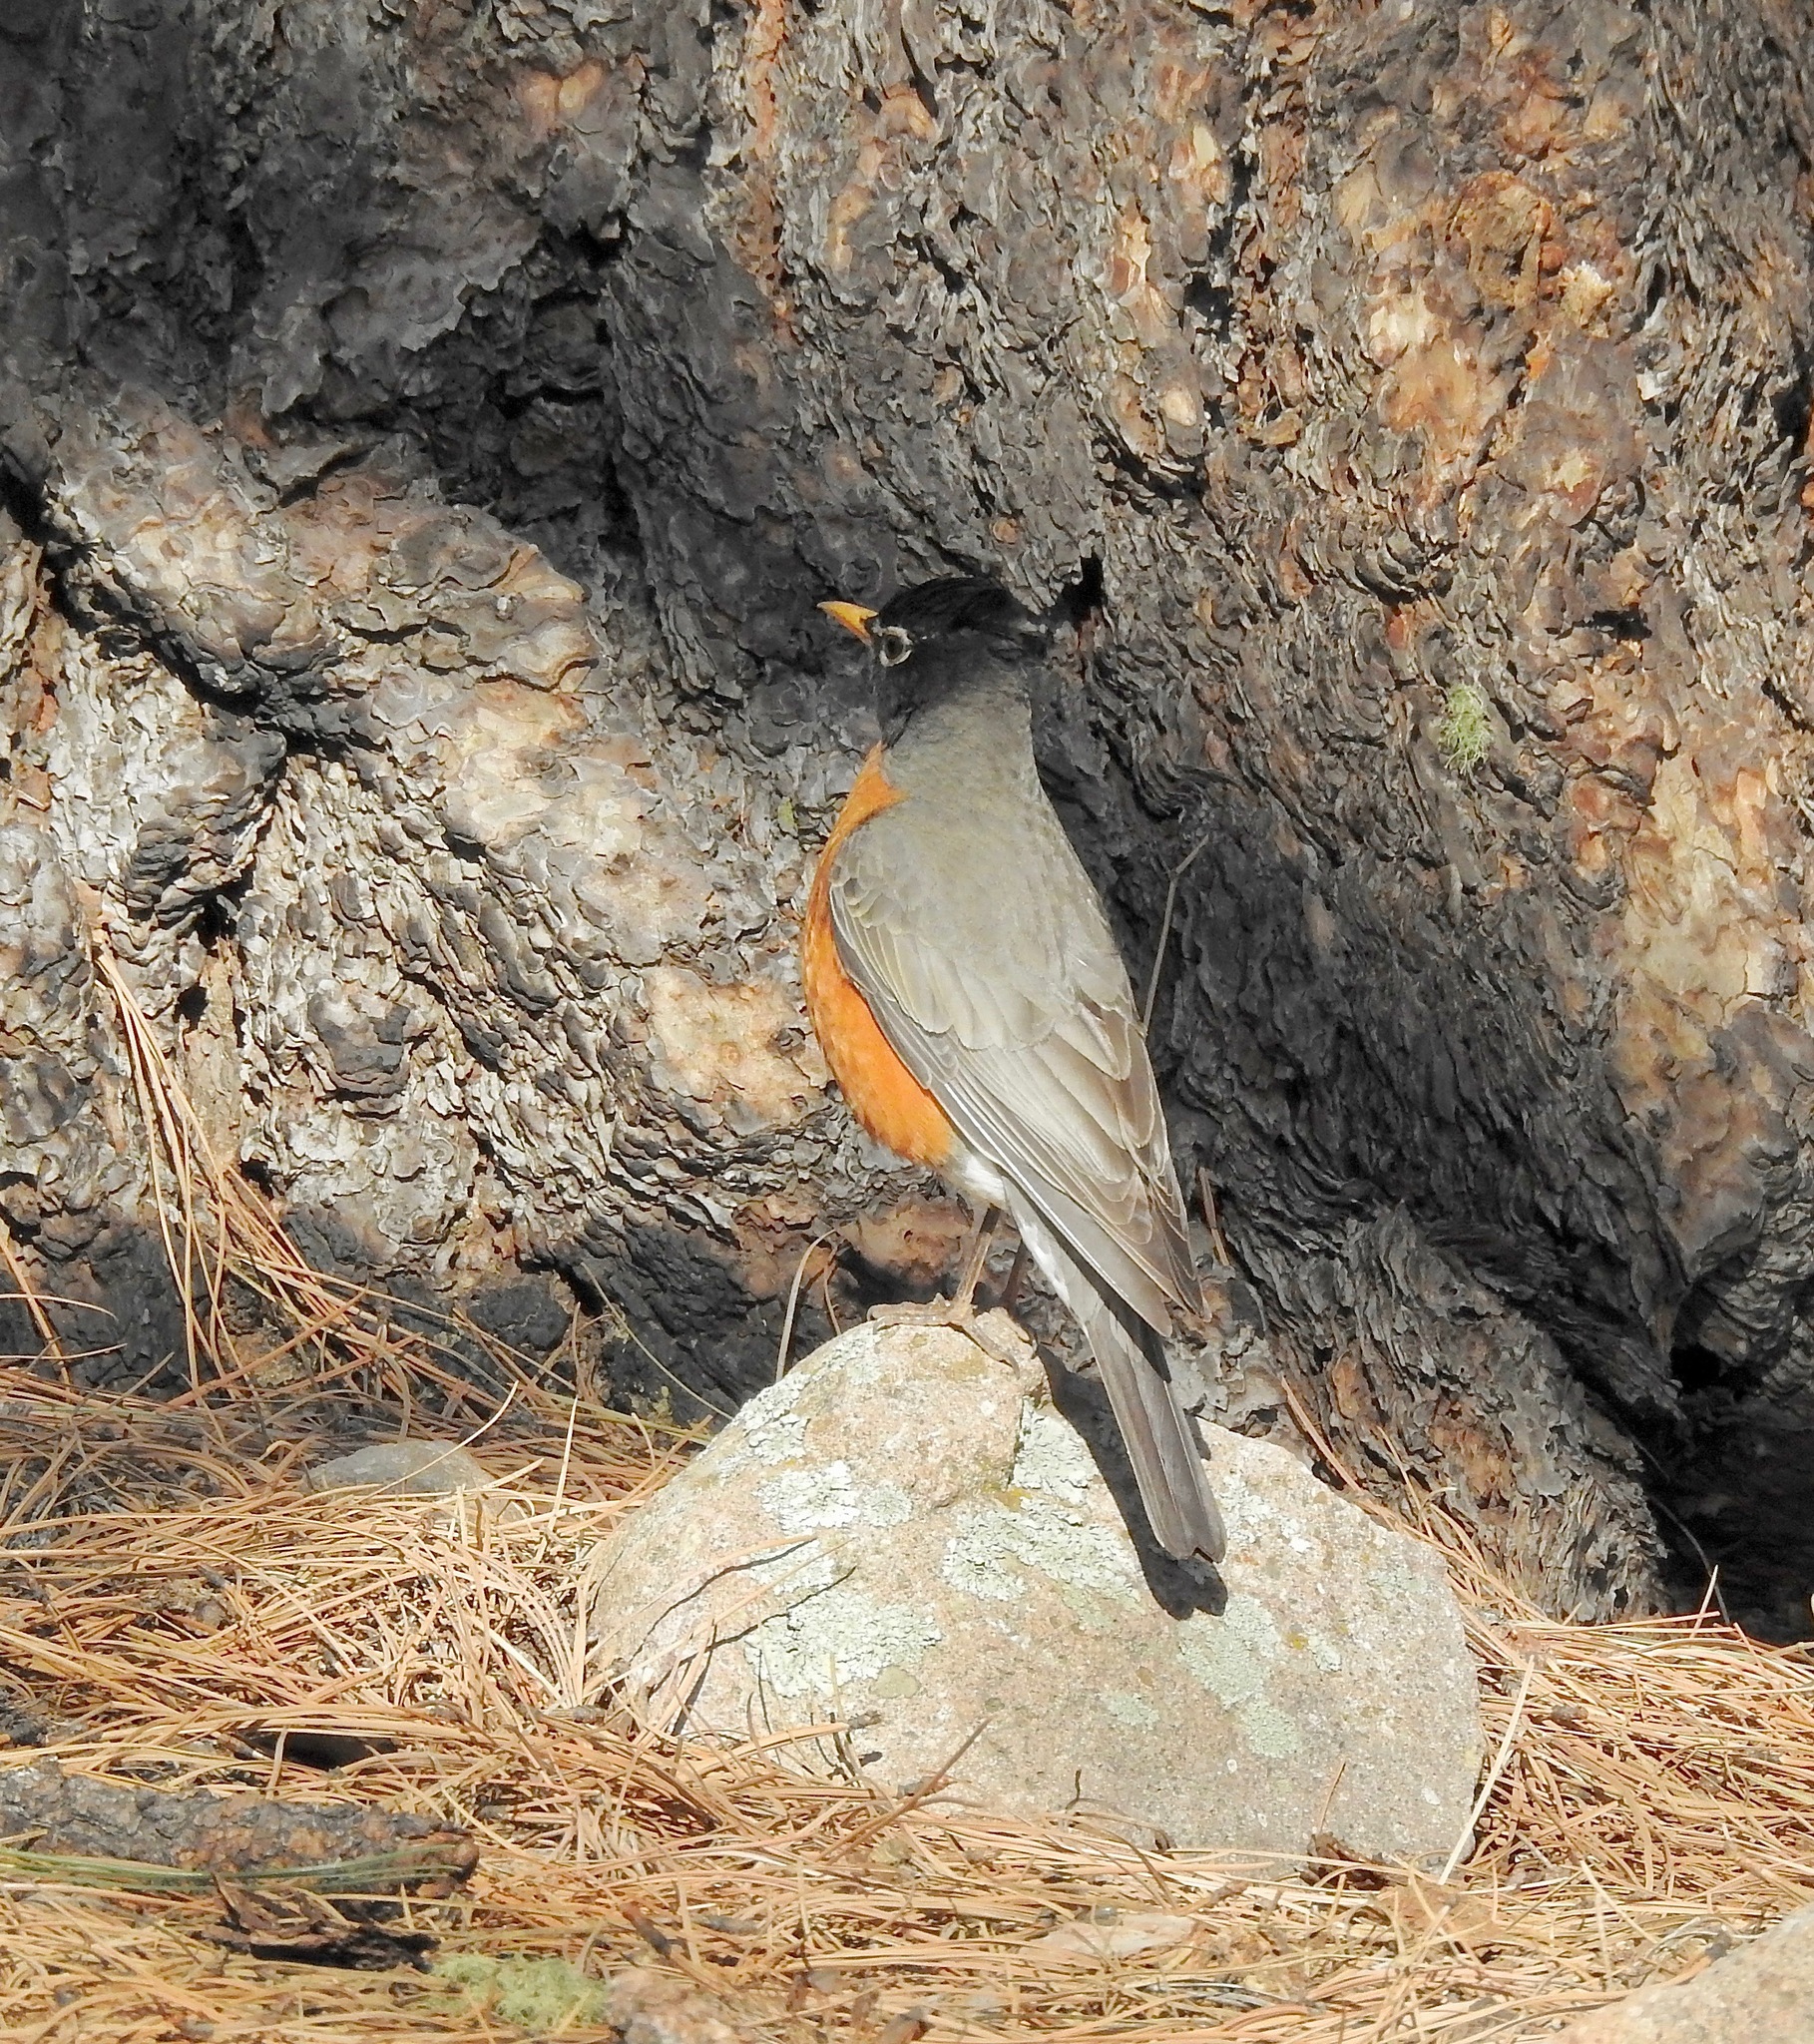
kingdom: Animalia
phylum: Chordata
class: Aves
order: Passeriformes
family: Turdidae
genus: Turdus
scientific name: Turdus migratorius
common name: American robin
